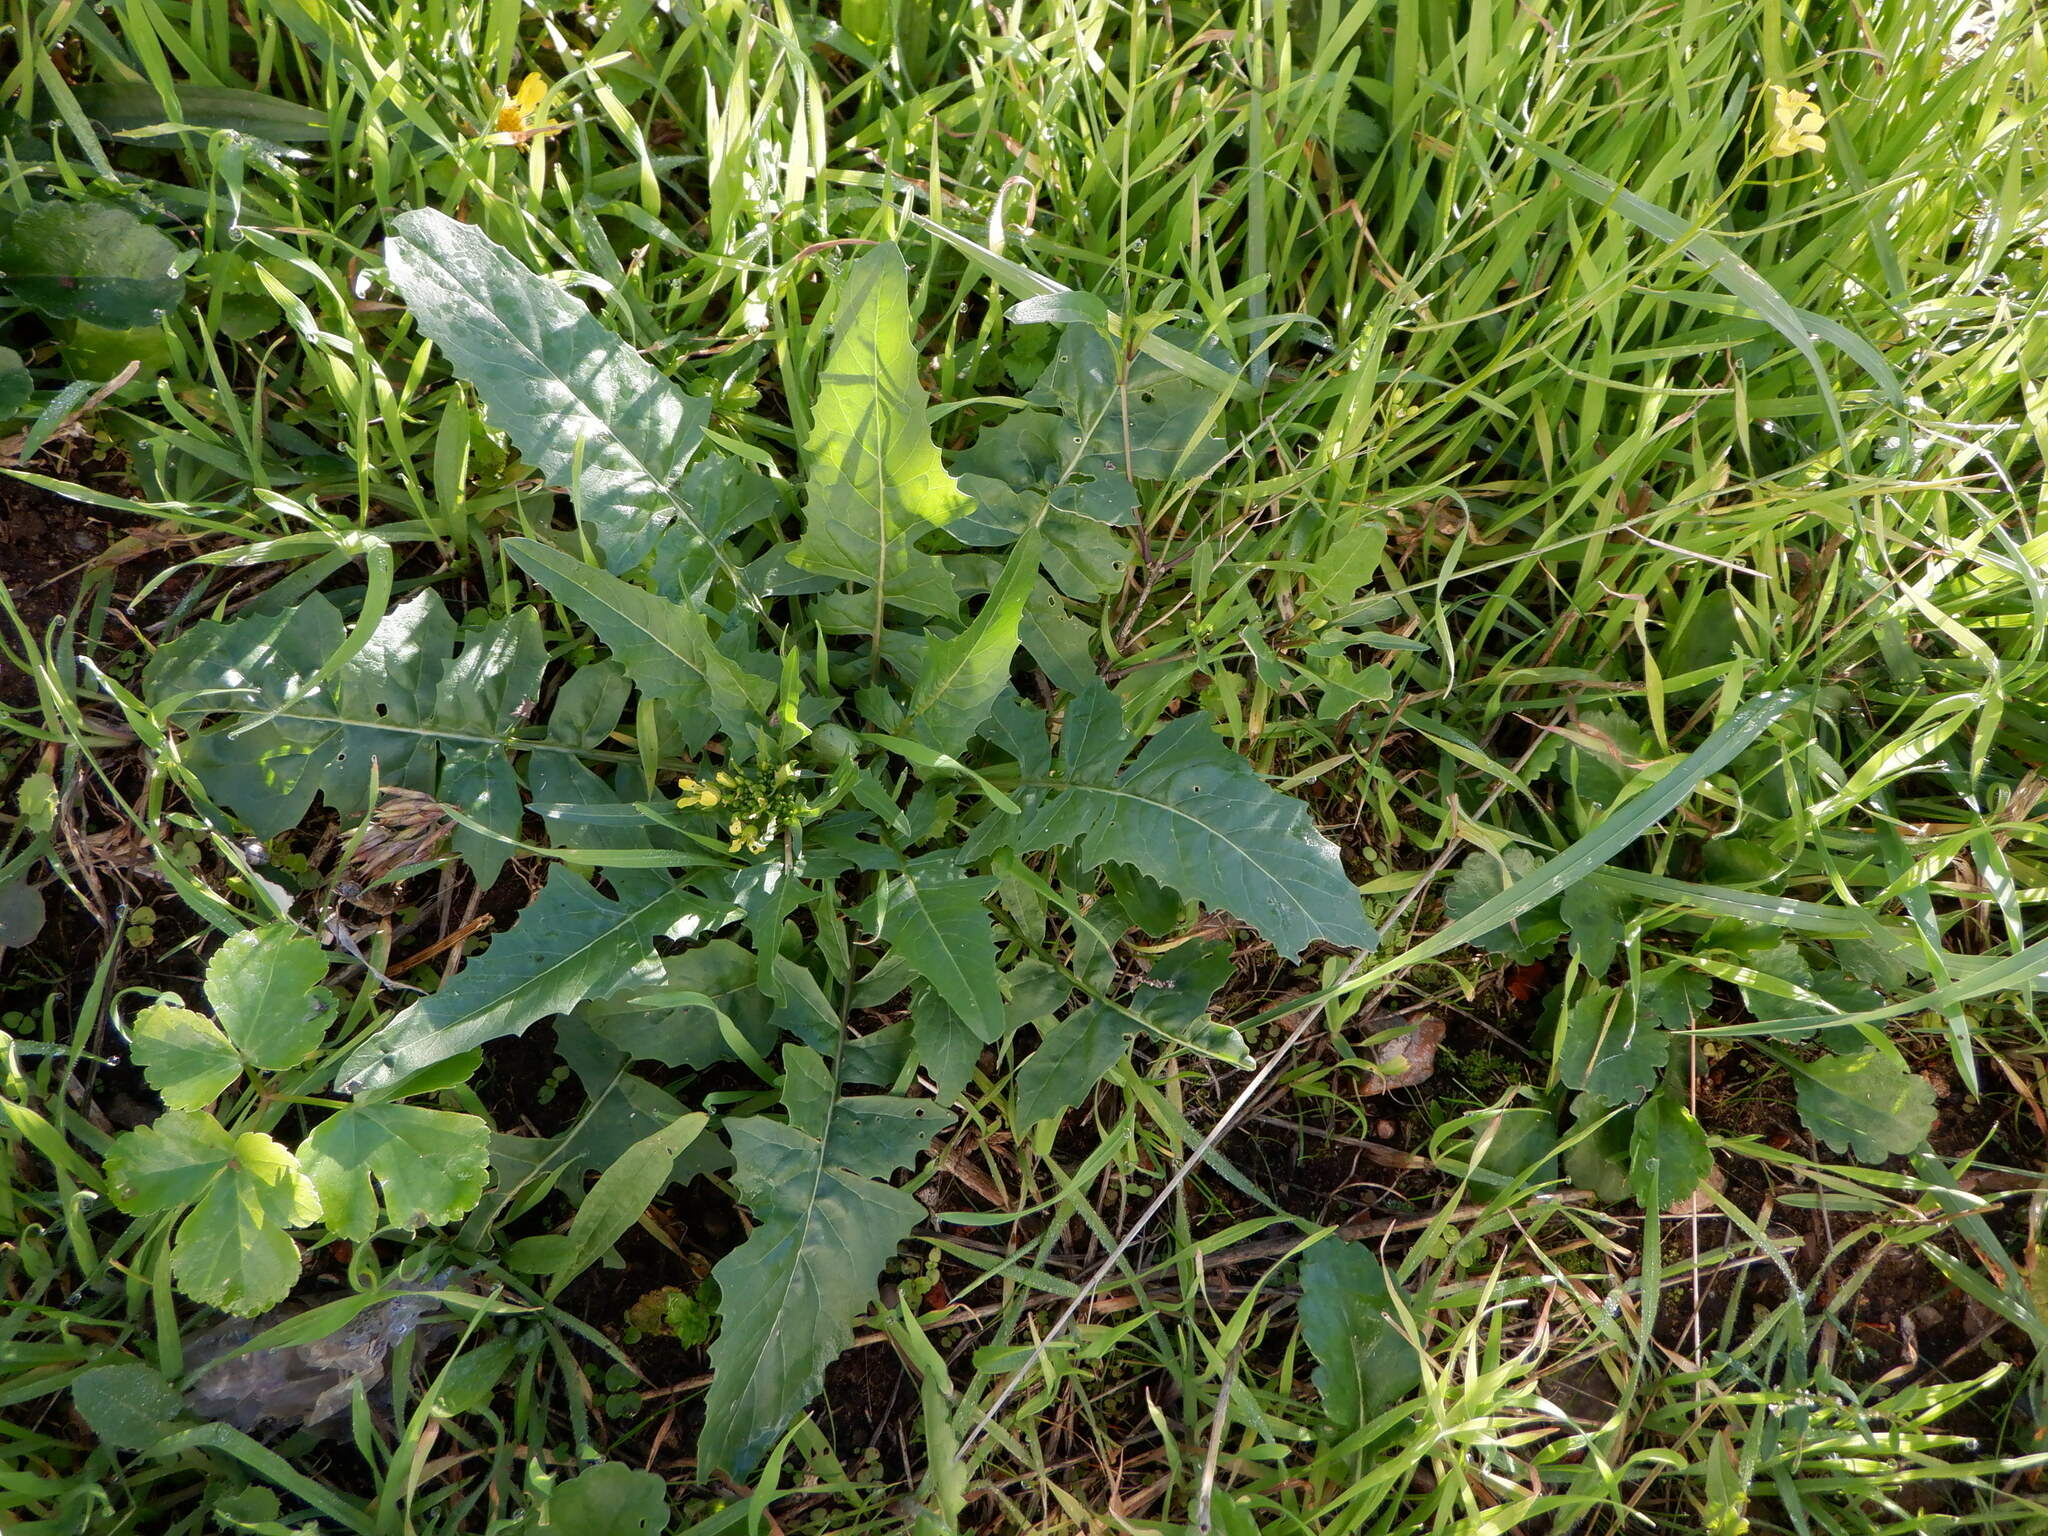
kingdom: Plantae
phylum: Tracheophyta
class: Magnoliopsida
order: Brassicales
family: Brassicaceae
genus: Sinapis
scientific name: Sinapis arvensis
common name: Charlock
